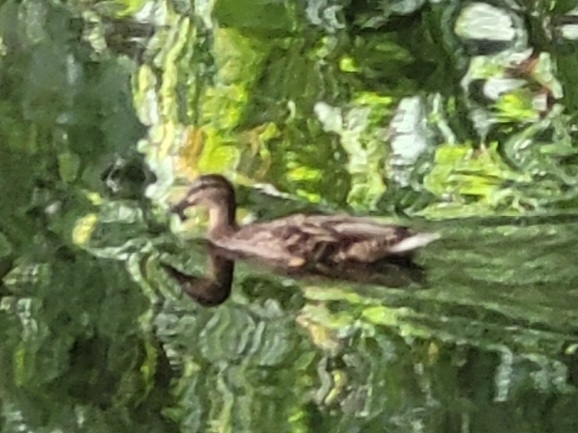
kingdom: Animalia
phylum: Chordata
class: Aves
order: Anseriformes
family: Anatidae
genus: Anas
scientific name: Anas platyrhynchos
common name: Mallard
